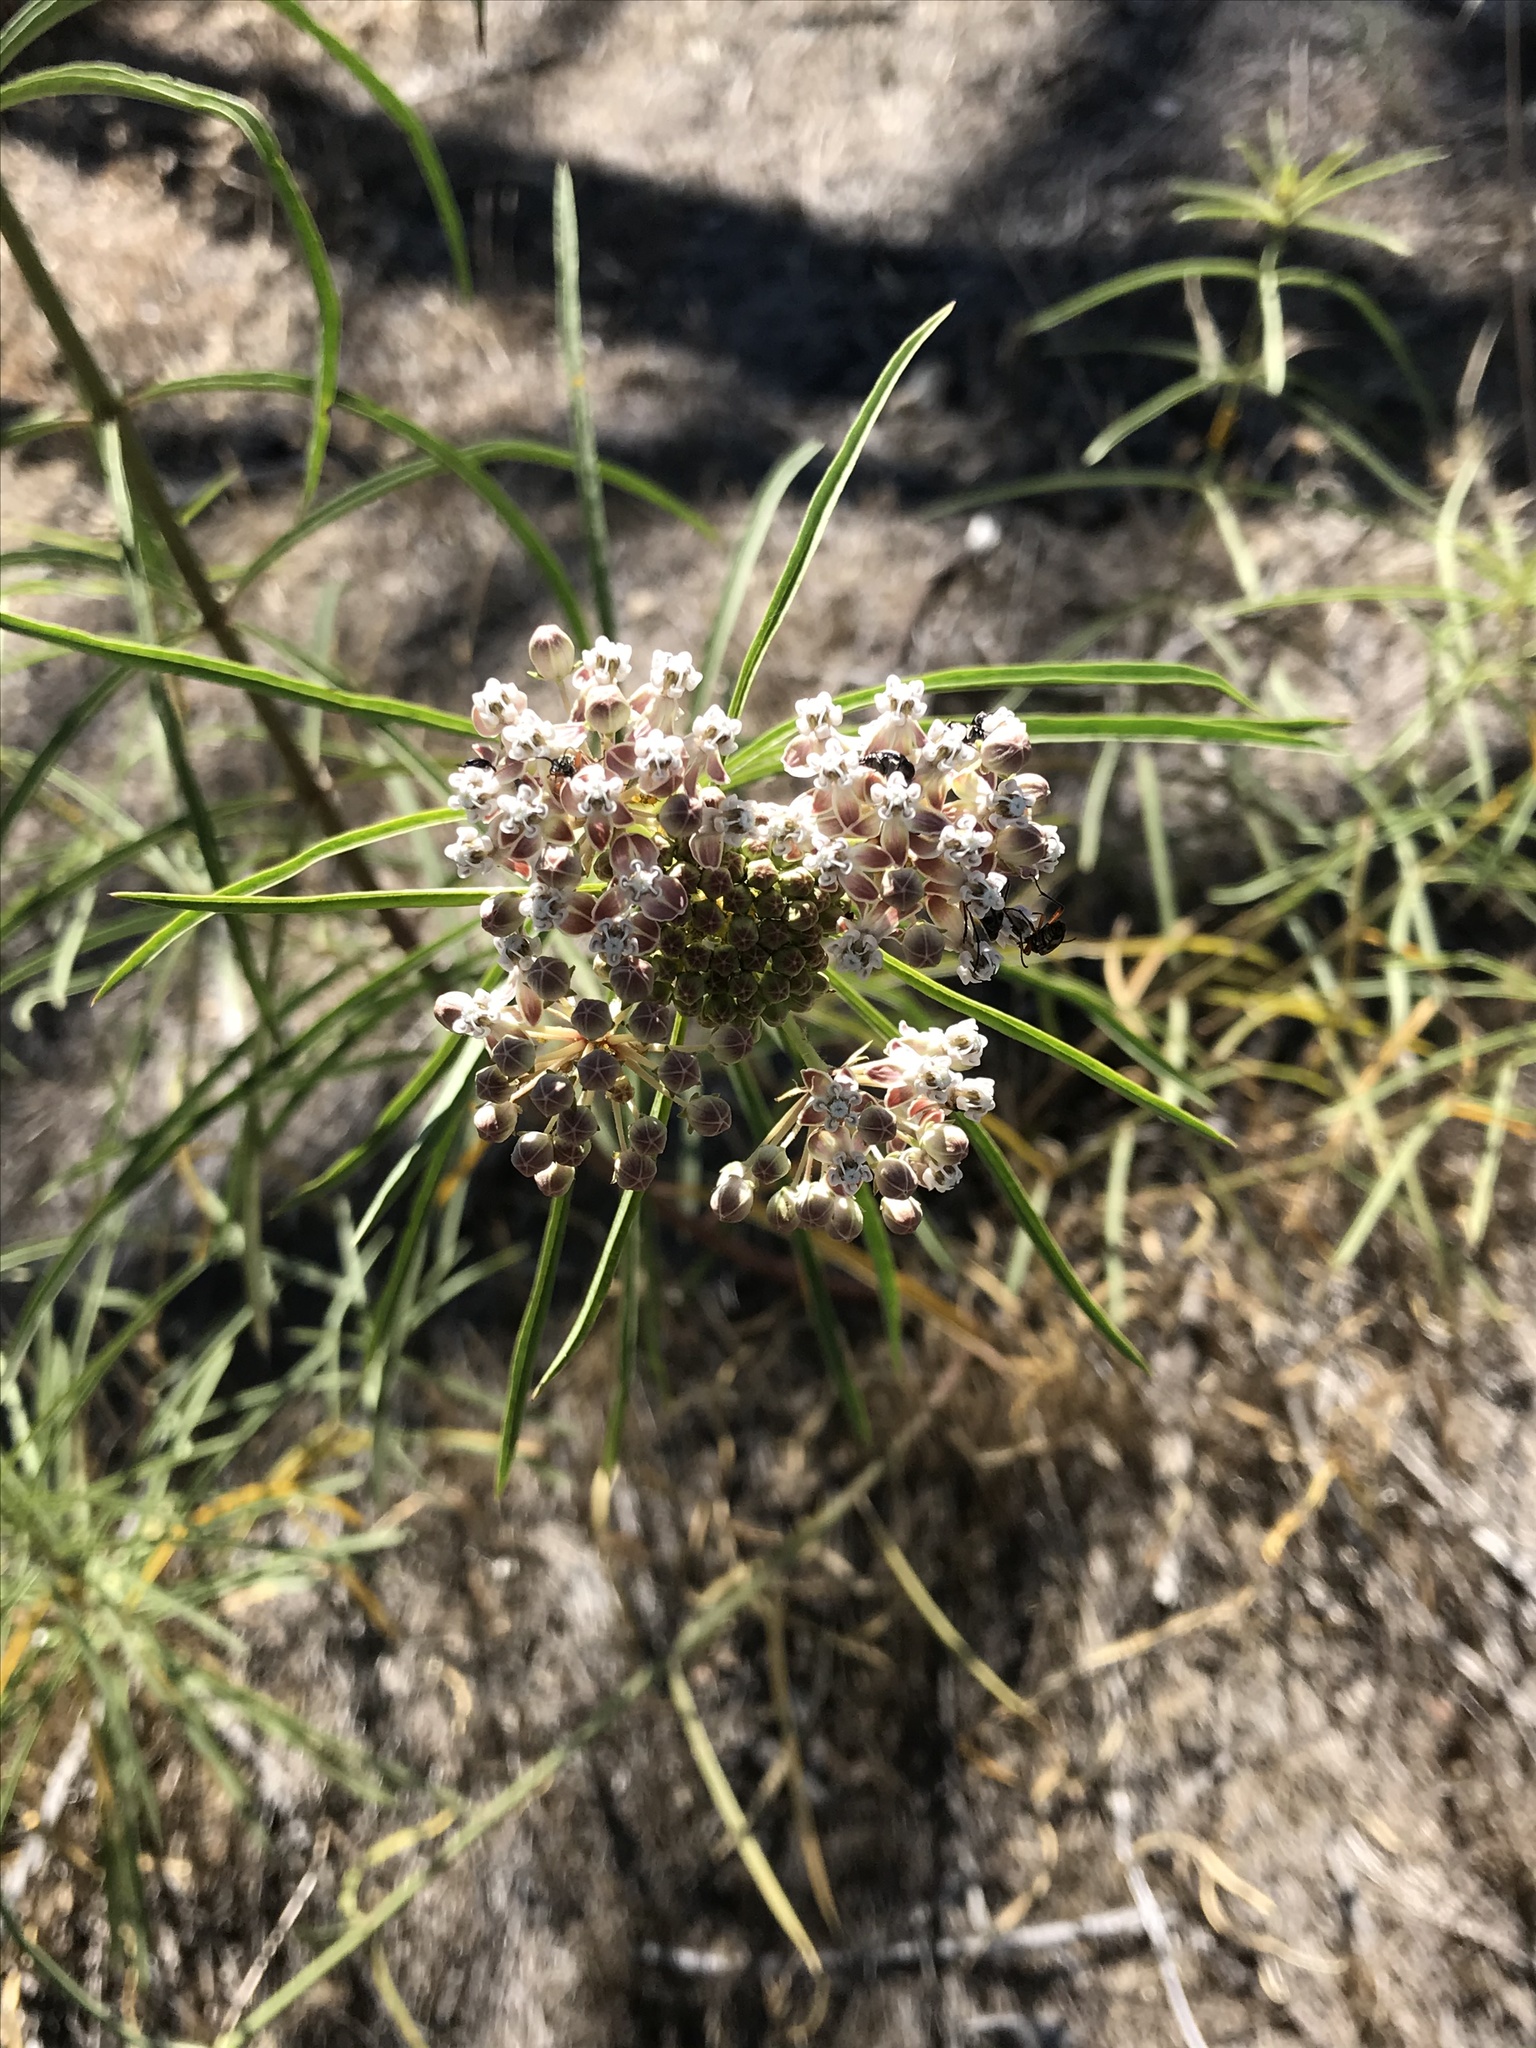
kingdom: Plantae
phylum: Tracheophyta
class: Magnoliopsida
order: Gentianales
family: Apocynaceae
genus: Asclepias
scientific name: Asclepias fascicularis
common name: Mexican milkweed
